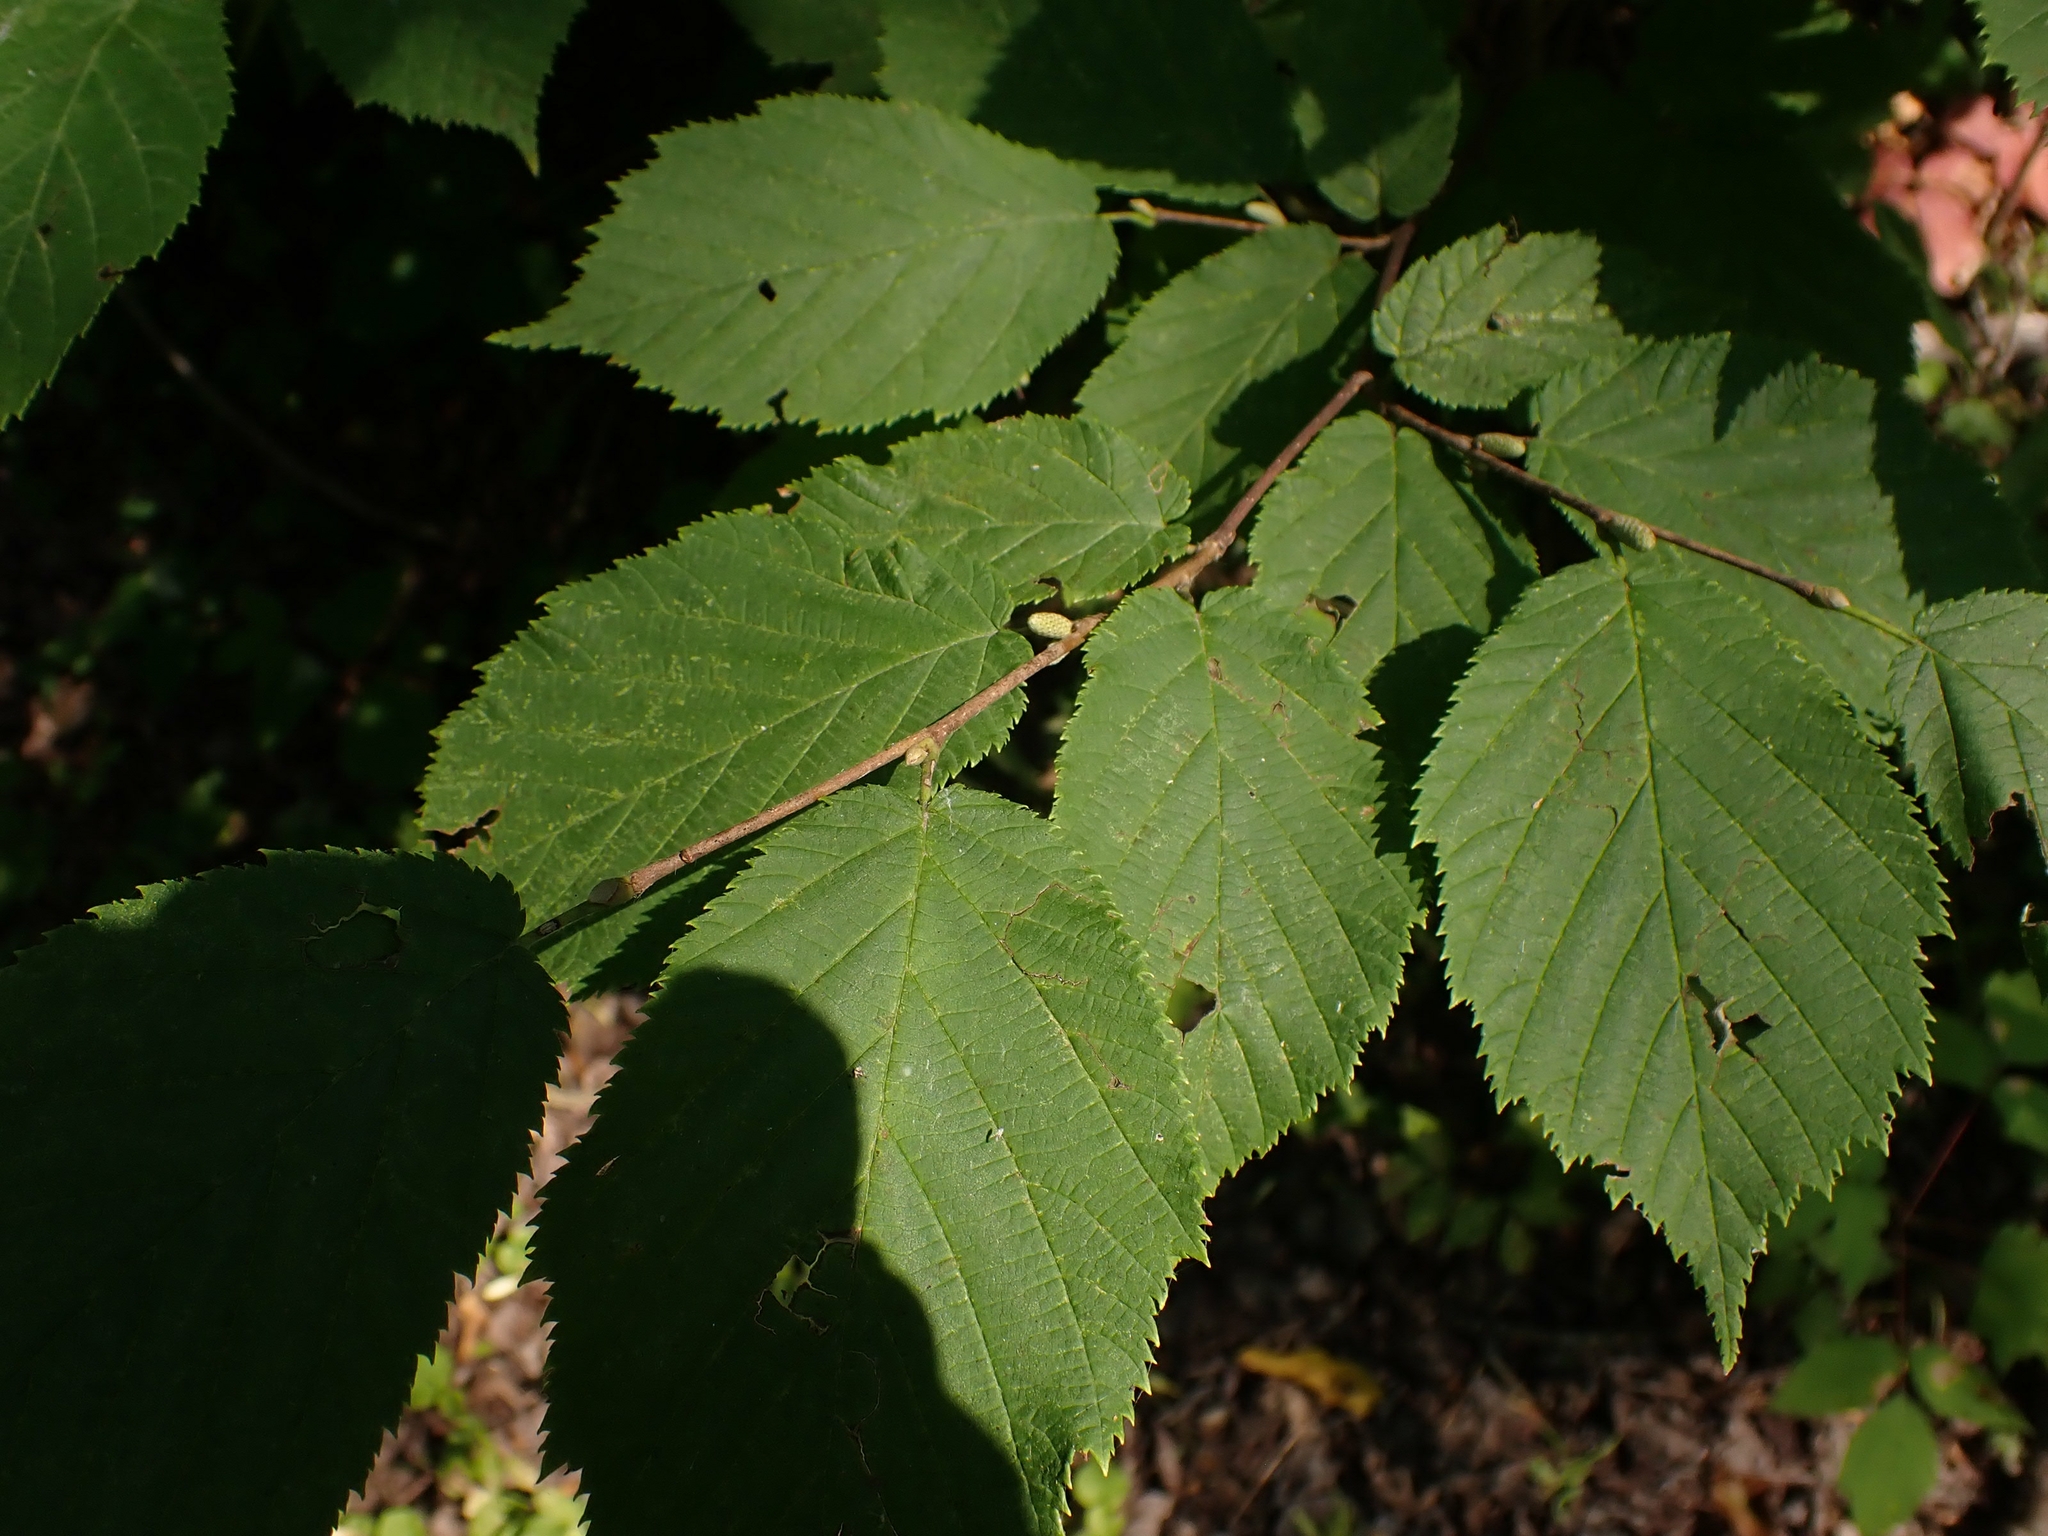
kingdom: Plantae
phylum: Tracheophyta
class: Magnoliopsida
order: Fagales
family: Betulaceae
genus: Corylus
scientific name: Corylus cornuta
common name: Beaked hazel
